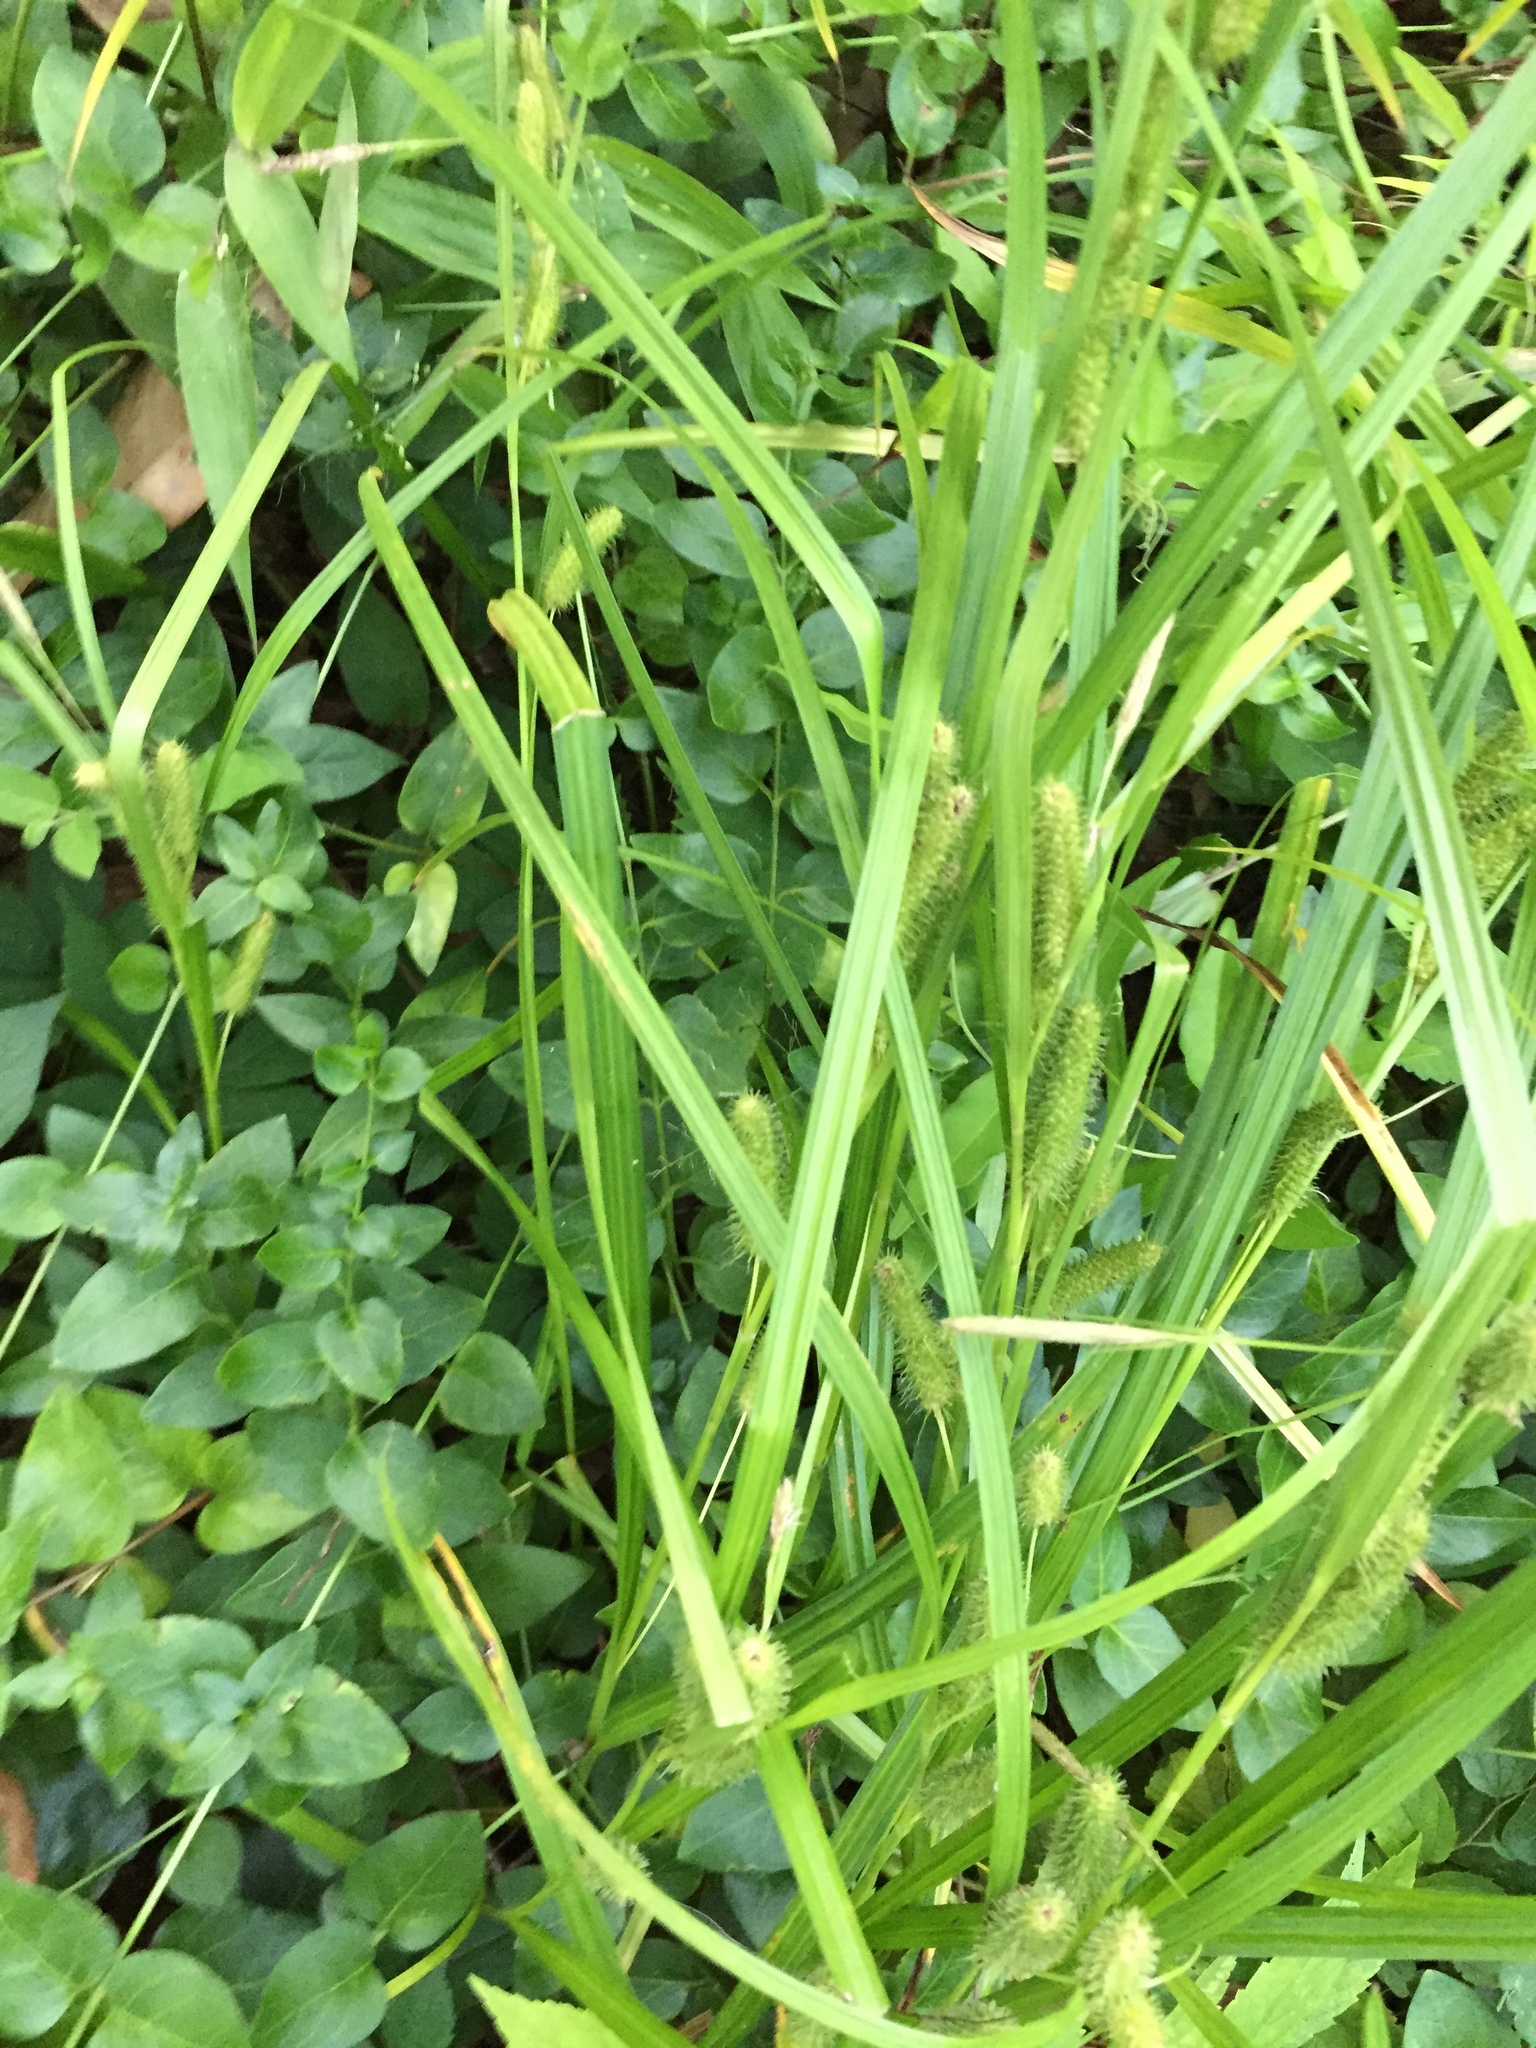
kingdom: Plantae
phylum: Tracheophyta
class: Liliopsida
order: Poales
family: Cyperaceae
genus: Carex
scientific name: Carex aureolensis
